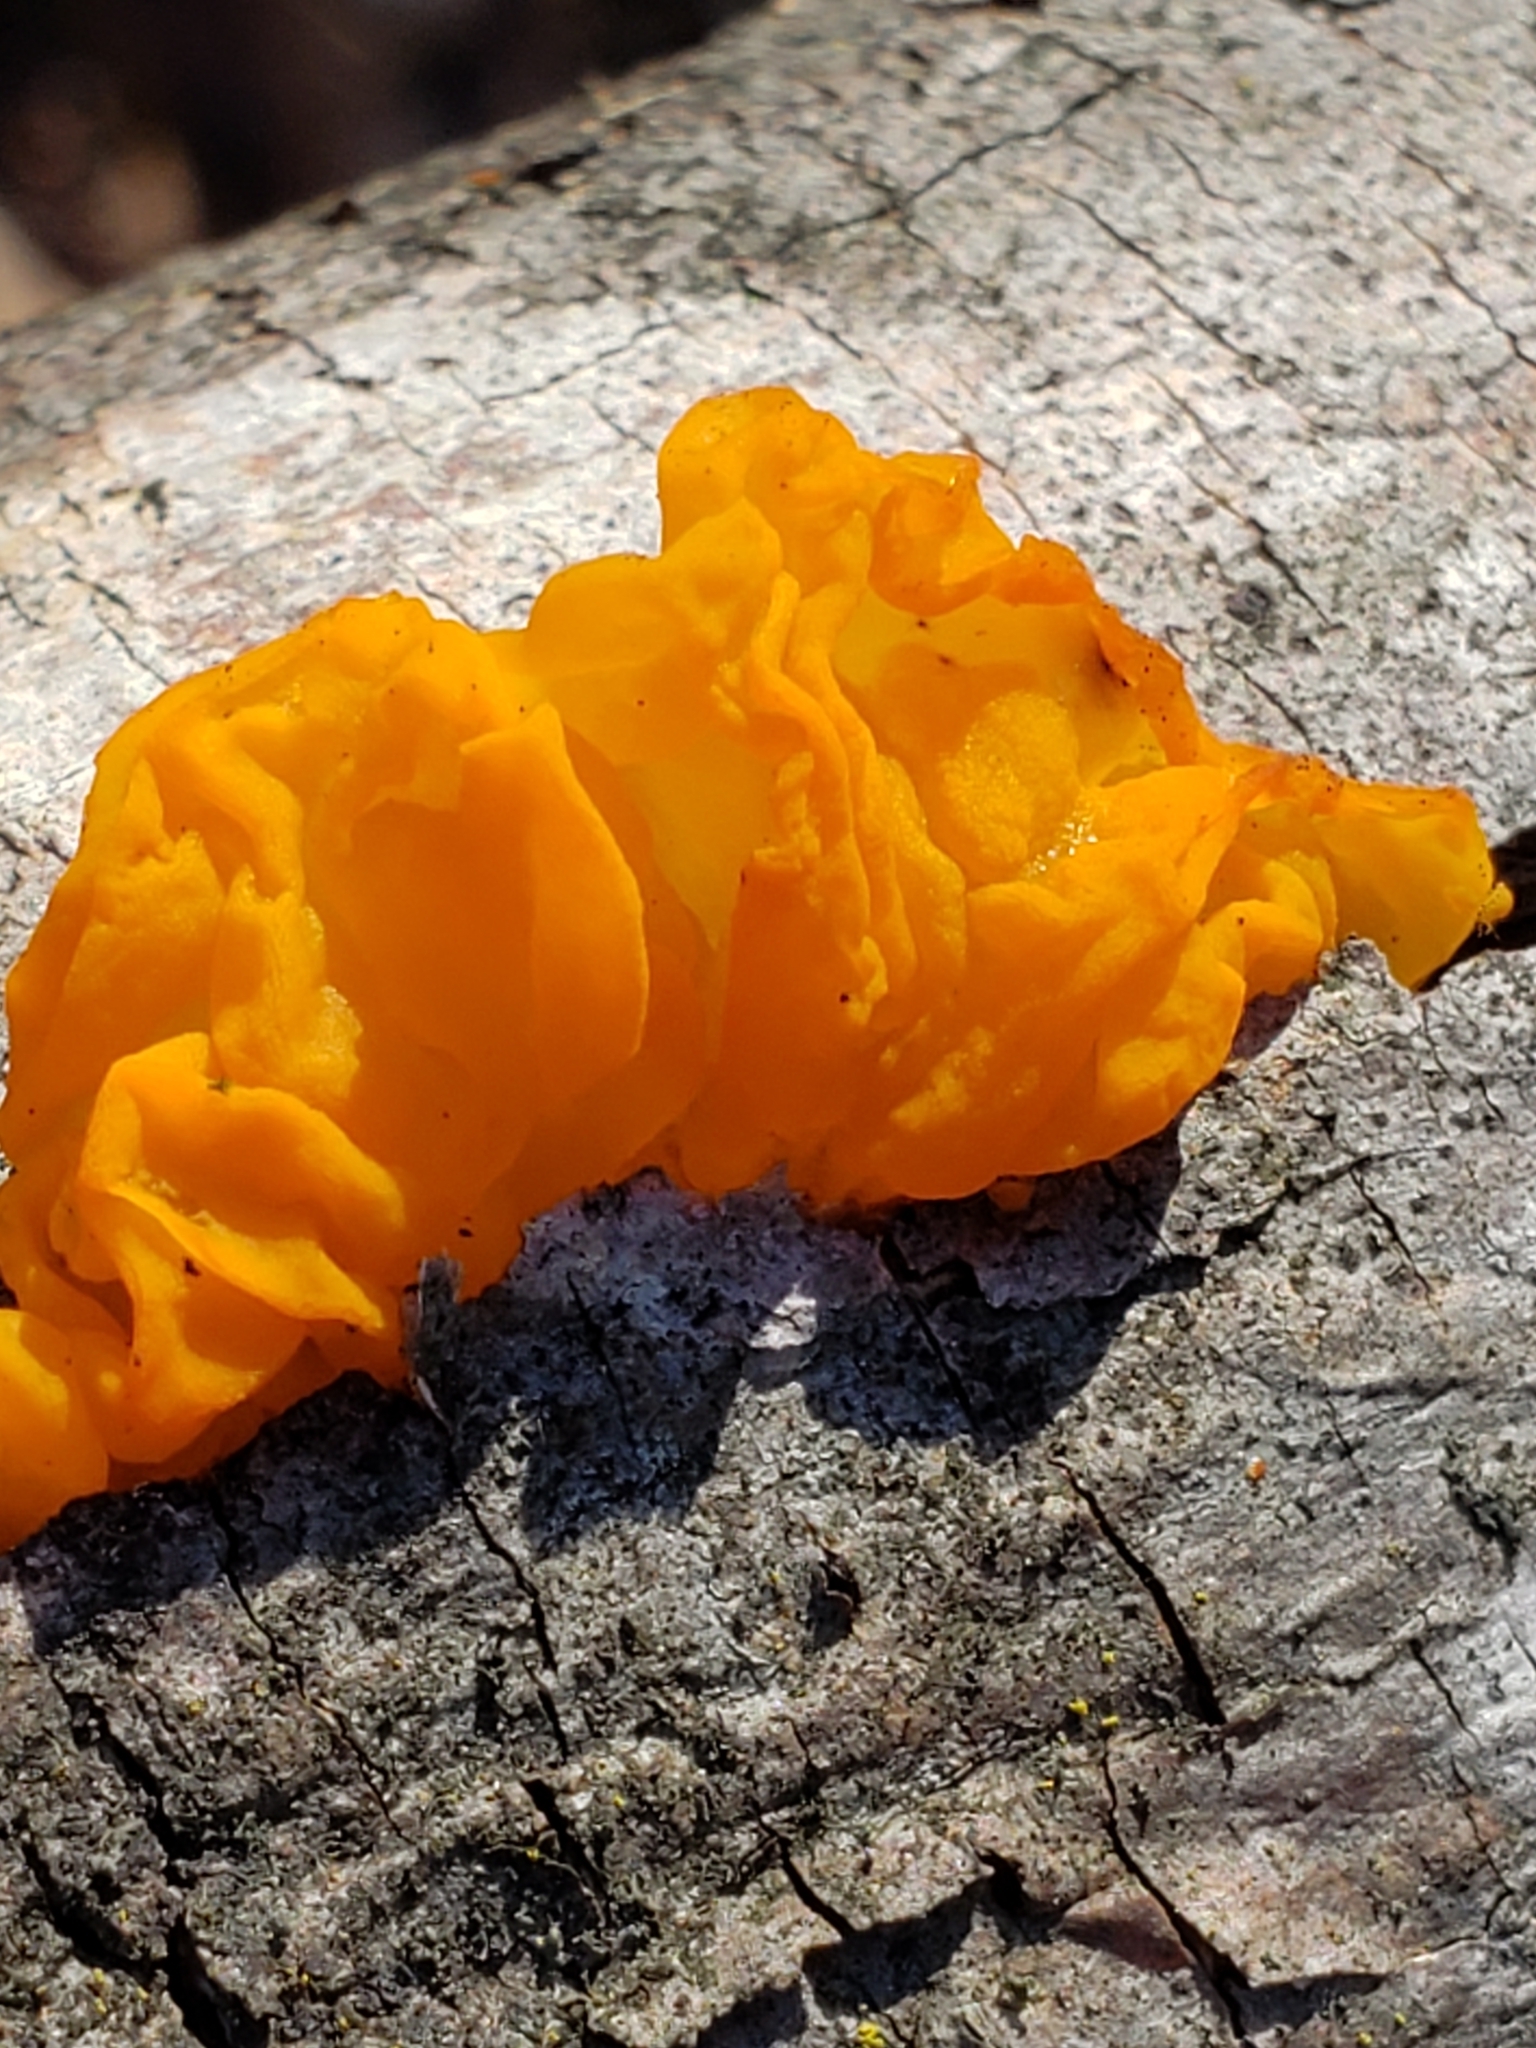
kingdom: Fungi
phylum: Basidiomycota
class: Tremellomycetes
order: Tremellales
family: Tremellaceae
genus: Tremella
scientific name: Tremella mesenterica
